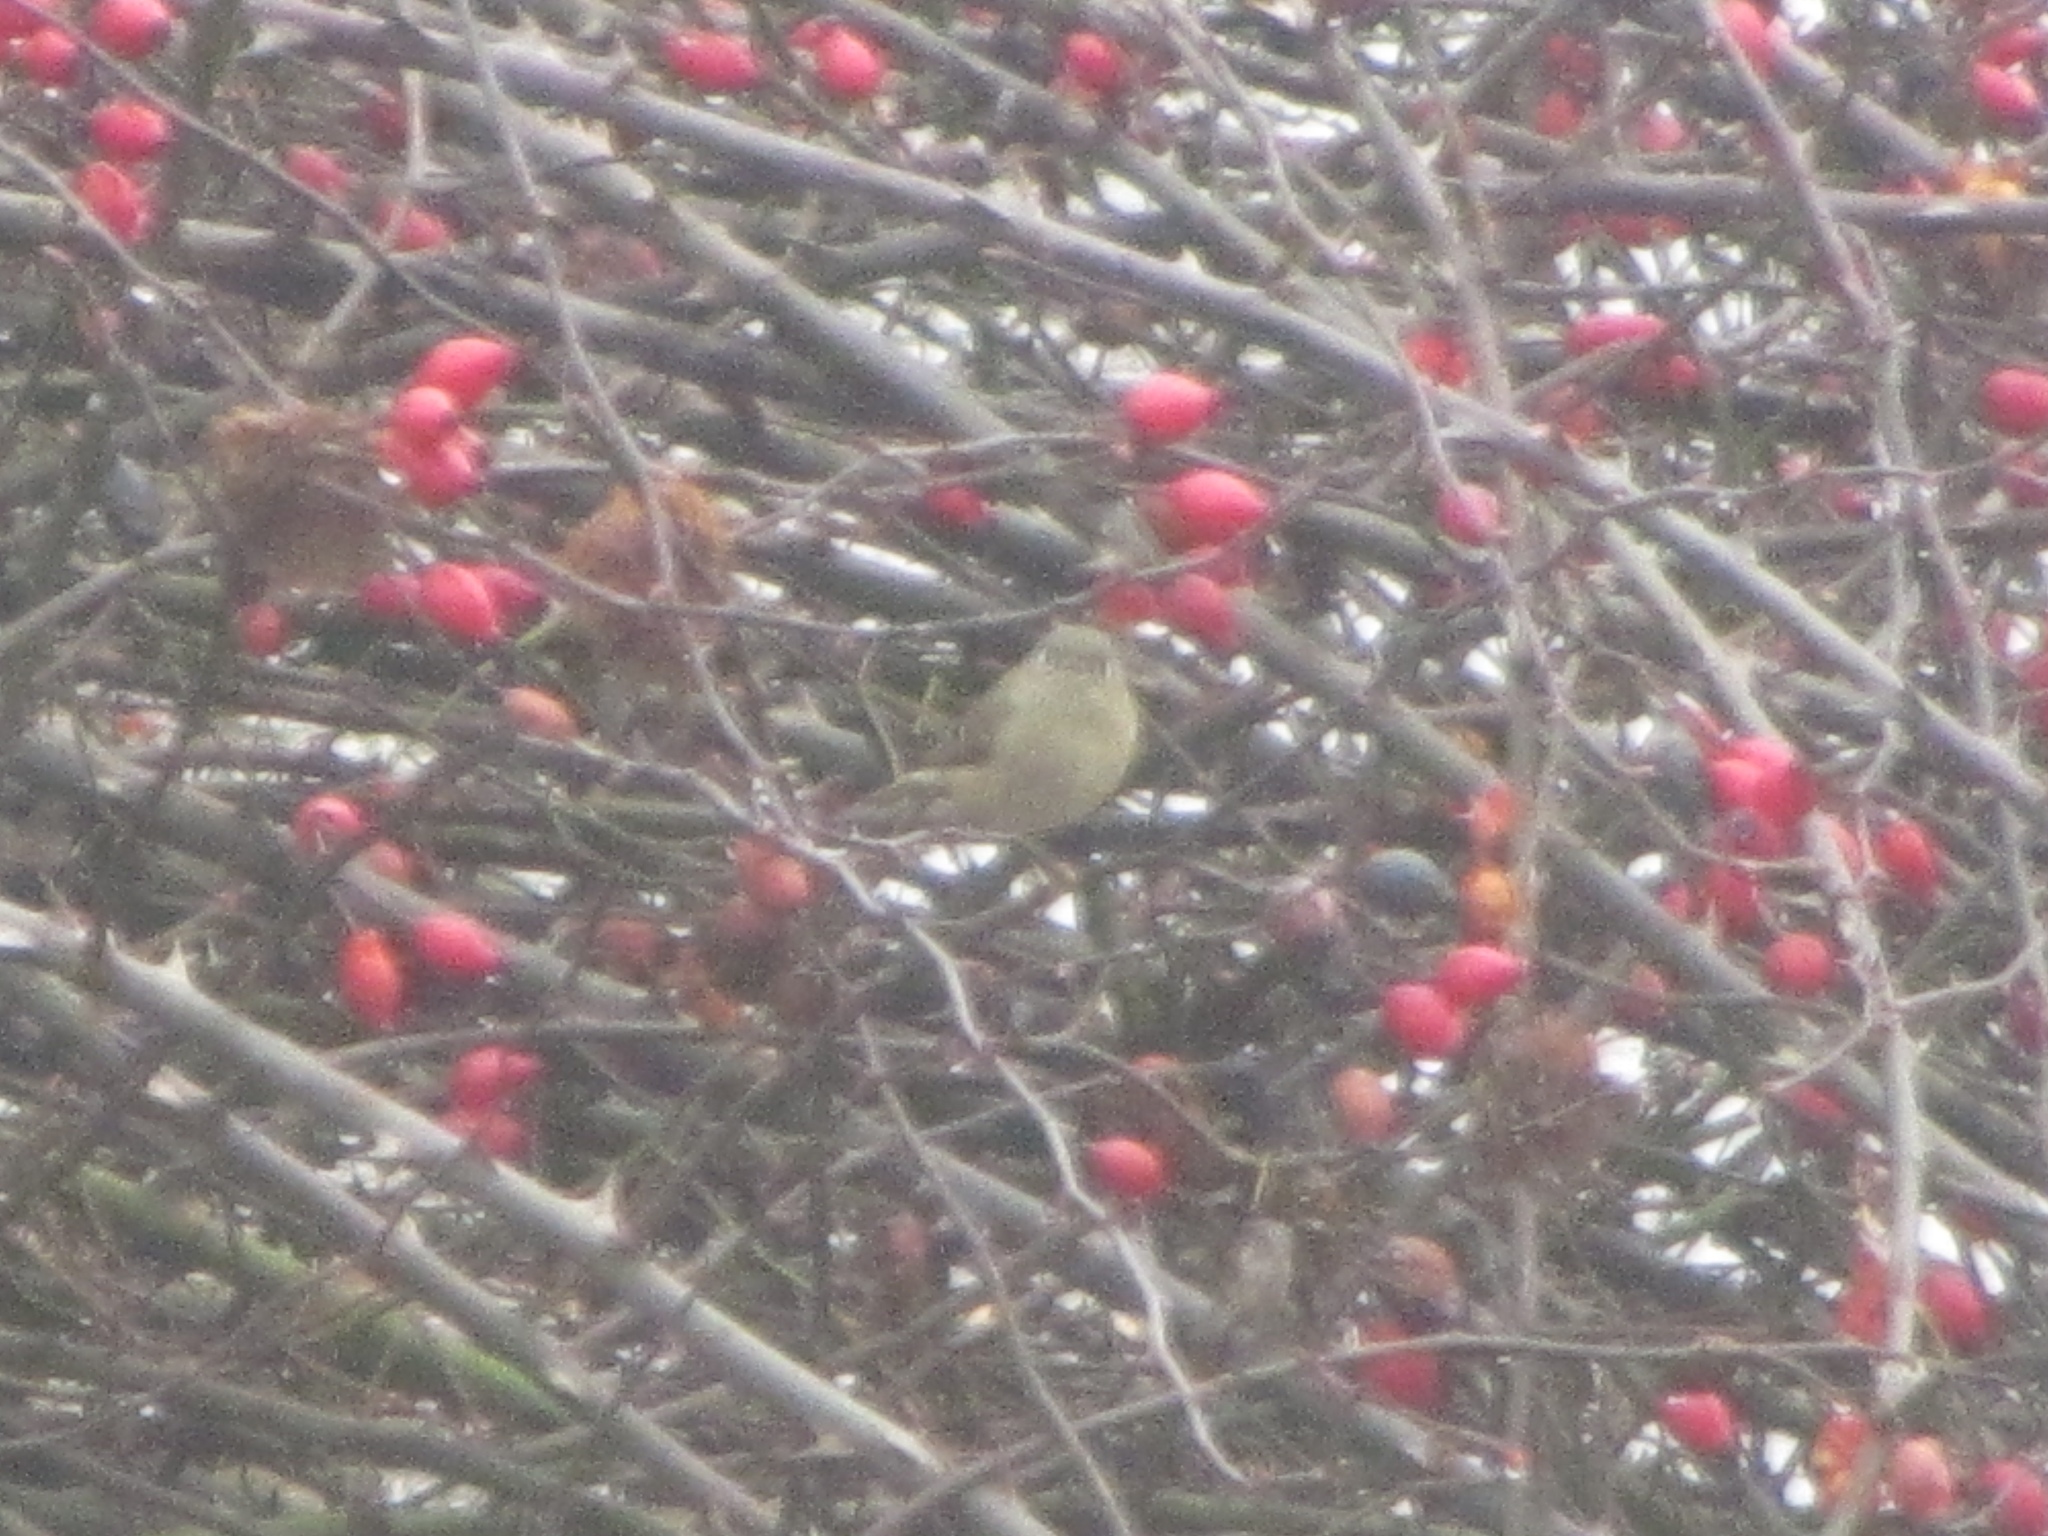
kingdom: Animalia
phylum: Chordata
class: Aves
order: Passeriformes
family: Regulidae
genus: Regulus
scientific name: Regulus calendula
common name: Ruby-crowned kinglet
